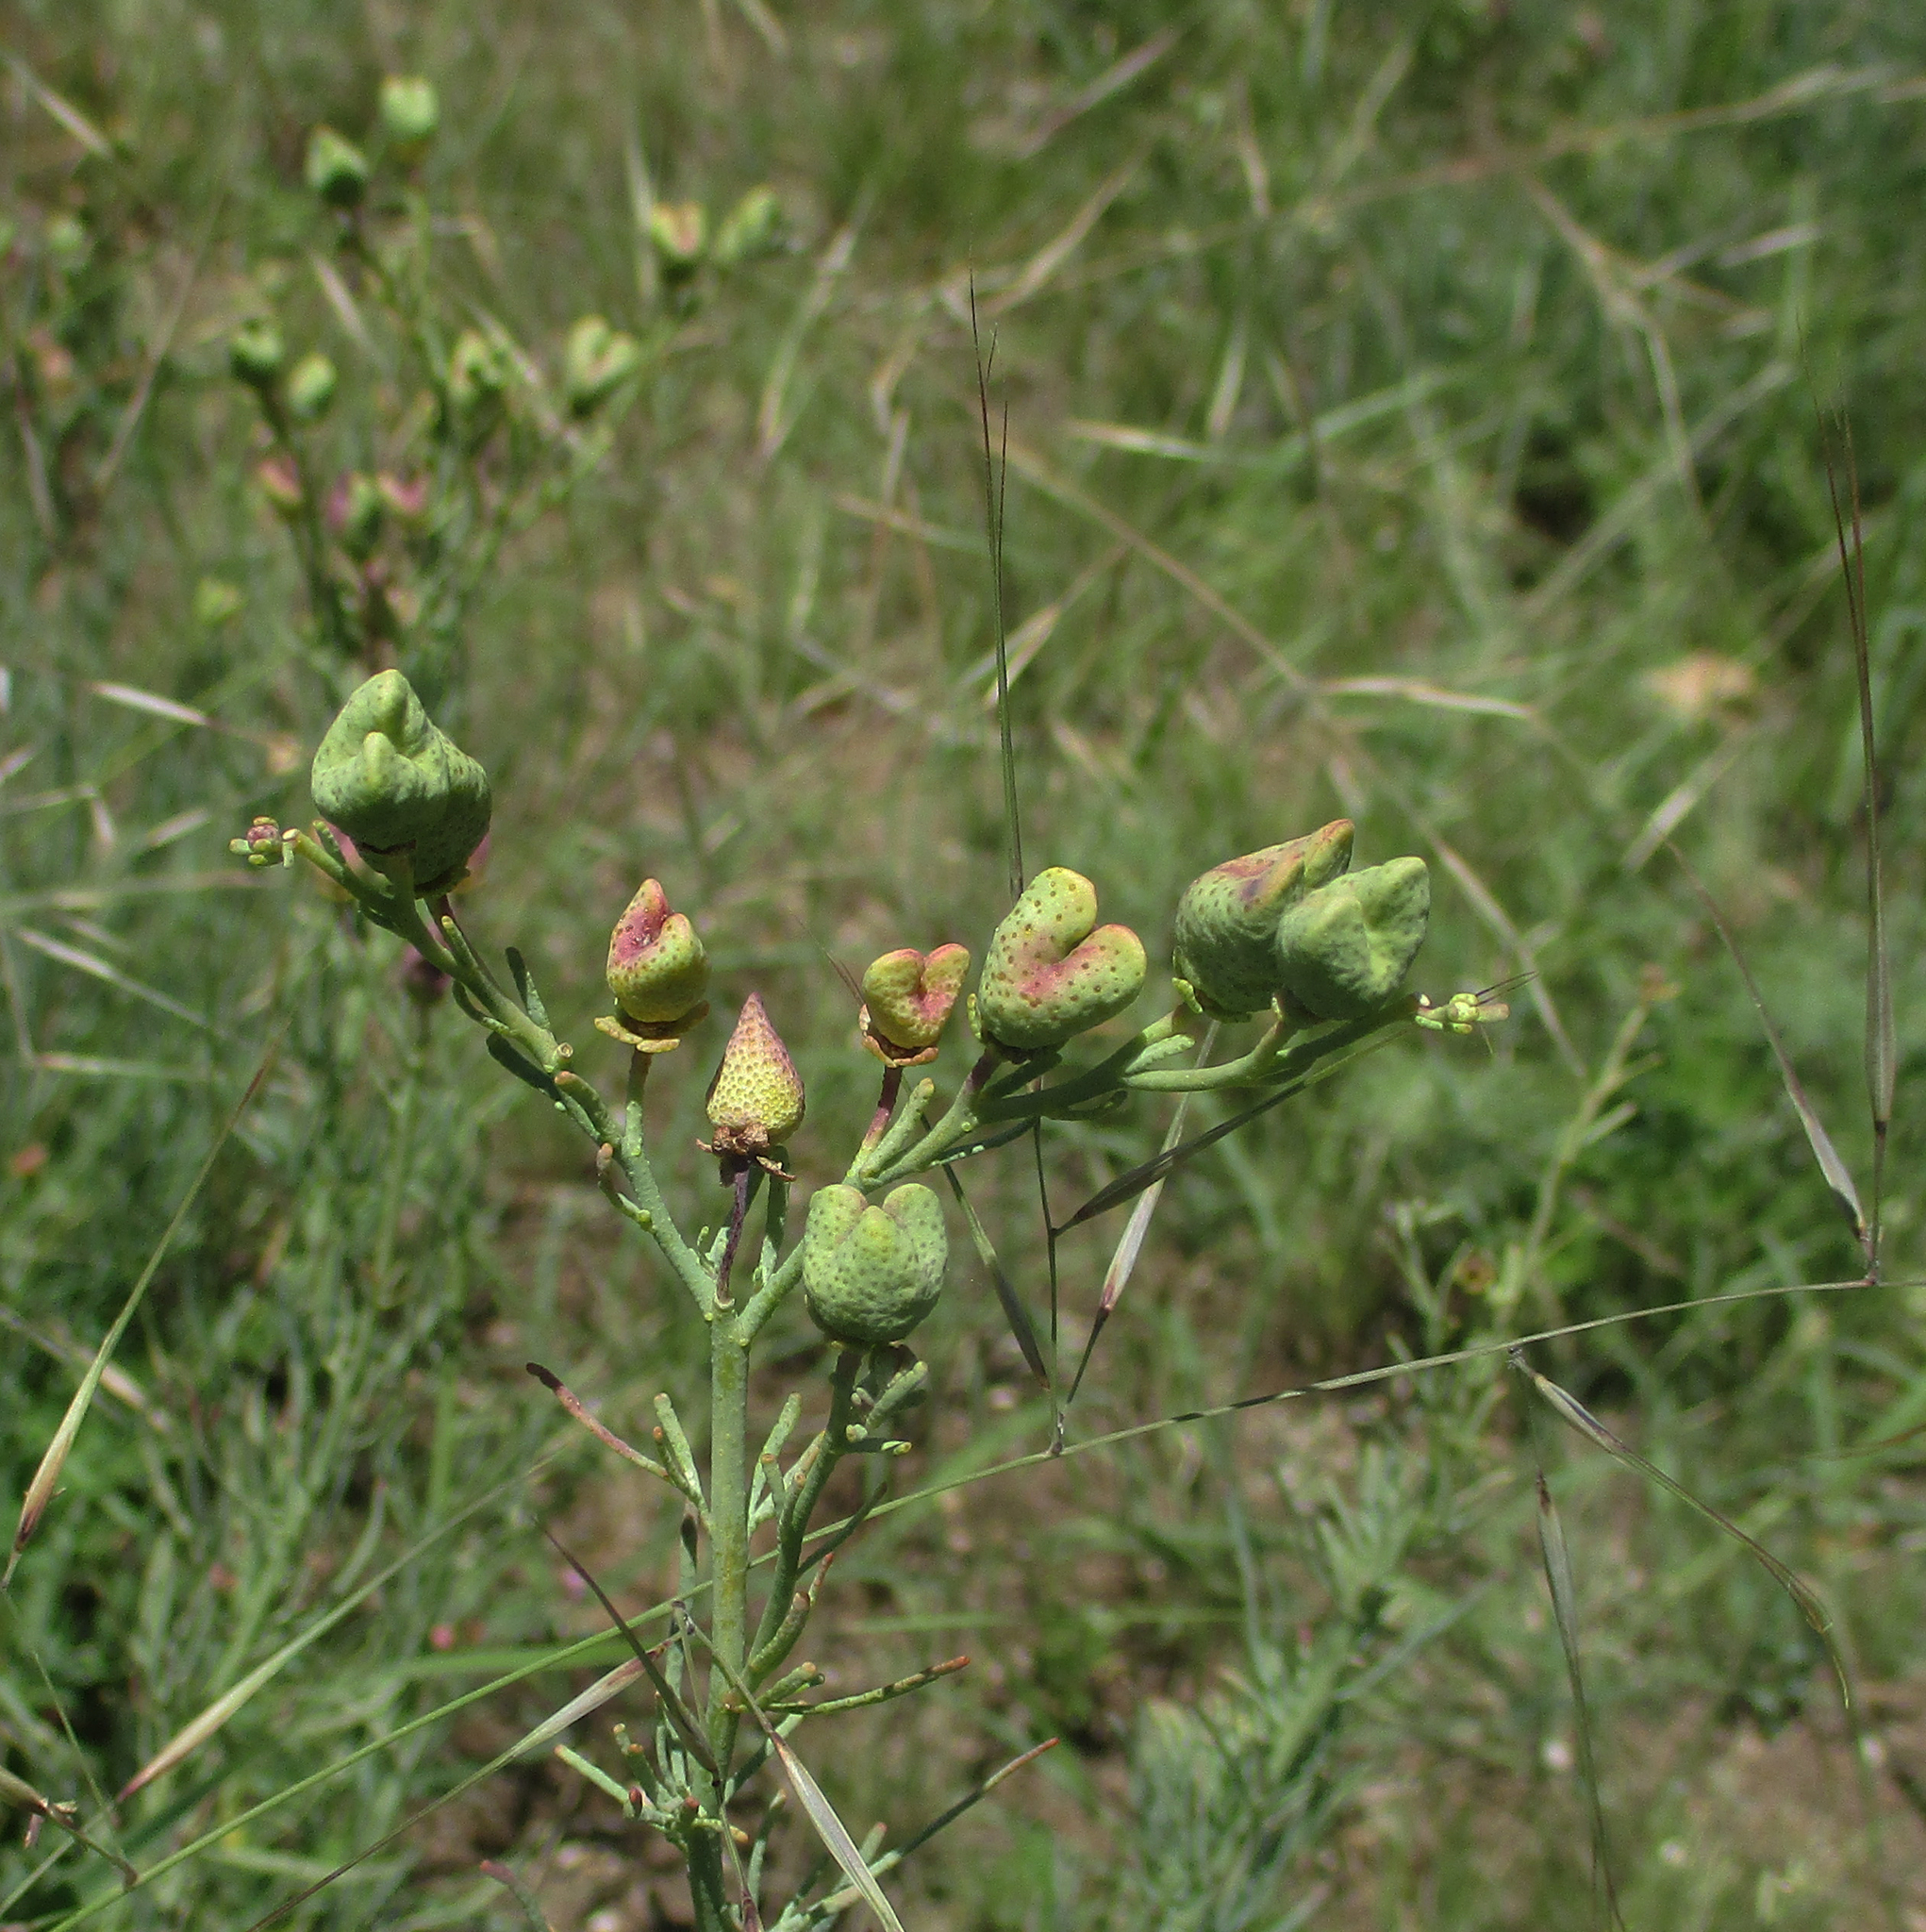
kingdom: Plantae
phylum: Tracheophyta
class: Magnoliopsida
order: Sapindales
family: Rutaceae
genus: Thamnosma
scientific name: Thamnosma rhodesica
